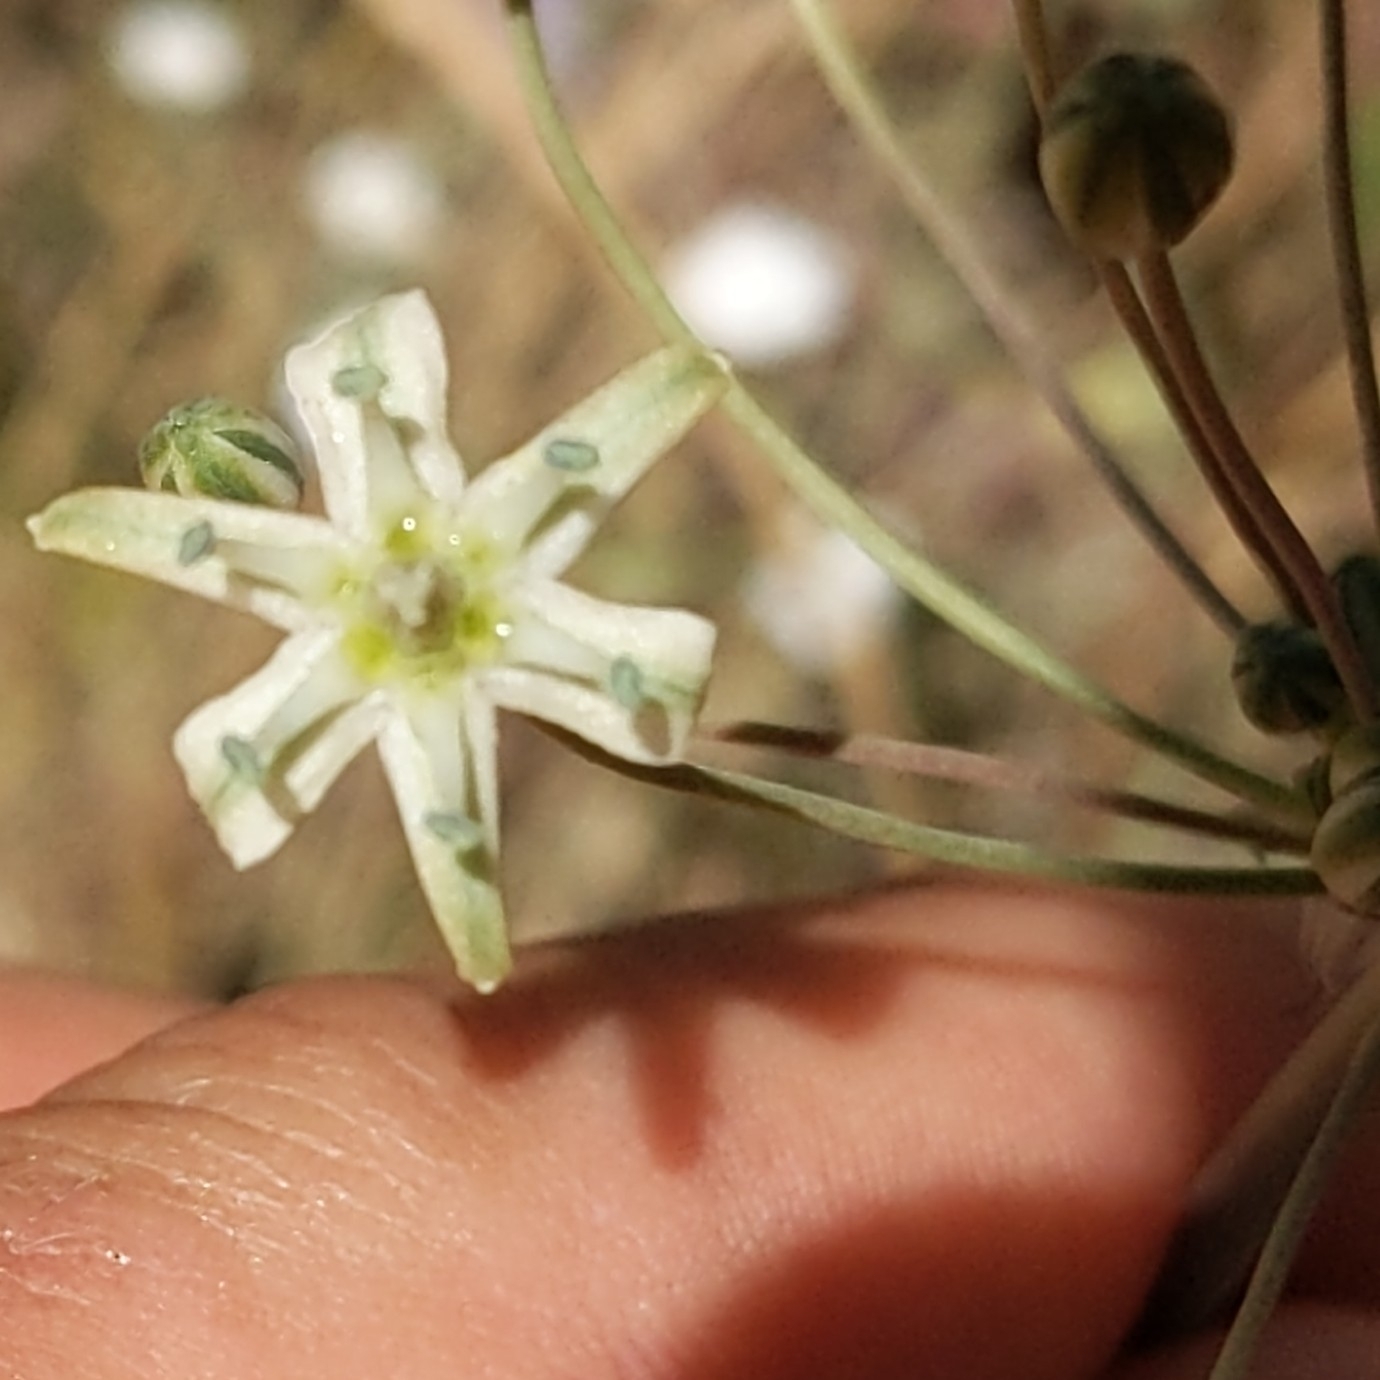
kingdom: Plantae
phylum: Tracheophyta
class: Liliopsida
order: Asparagales
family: Asparagaceae
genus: Muilla
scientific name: Muilla maritima
